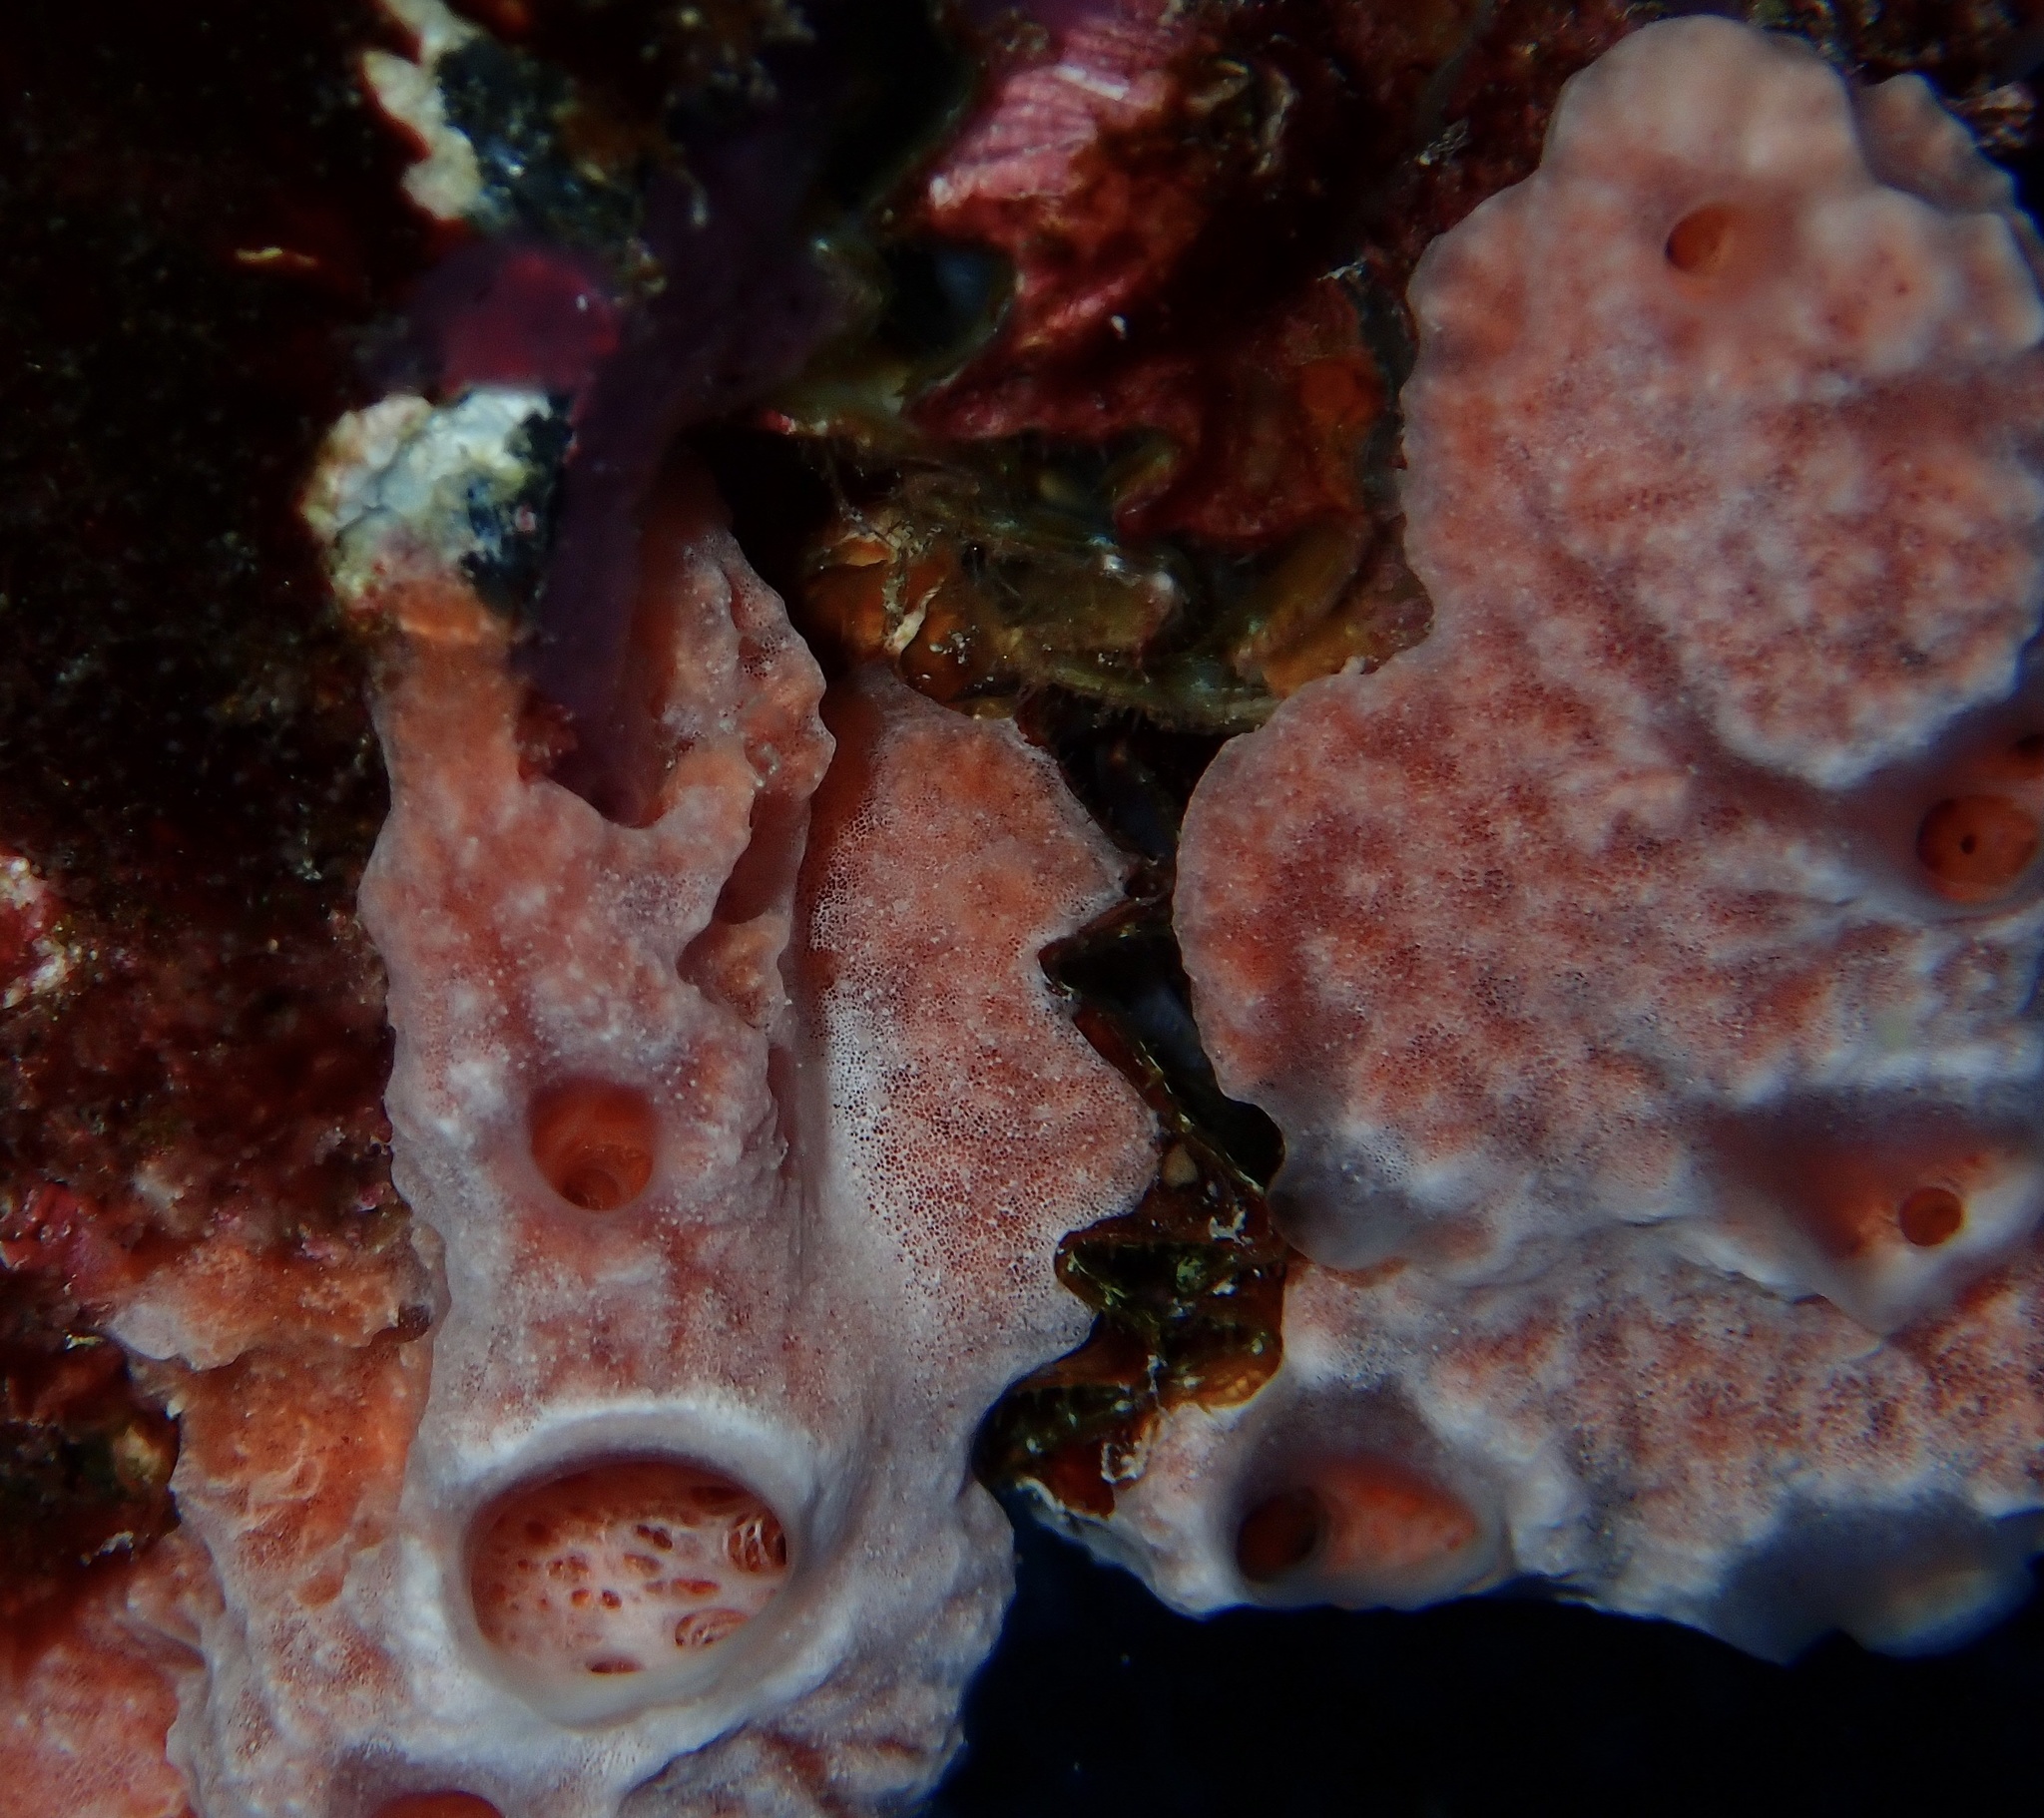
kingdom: Animalia
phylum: Porifera
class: Demospongiae
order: Poecilosclerida
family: Desmacididae
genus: Desmapsamma
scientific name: Desmapsamma anchorata
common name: Lumpy overgrowing sponge
